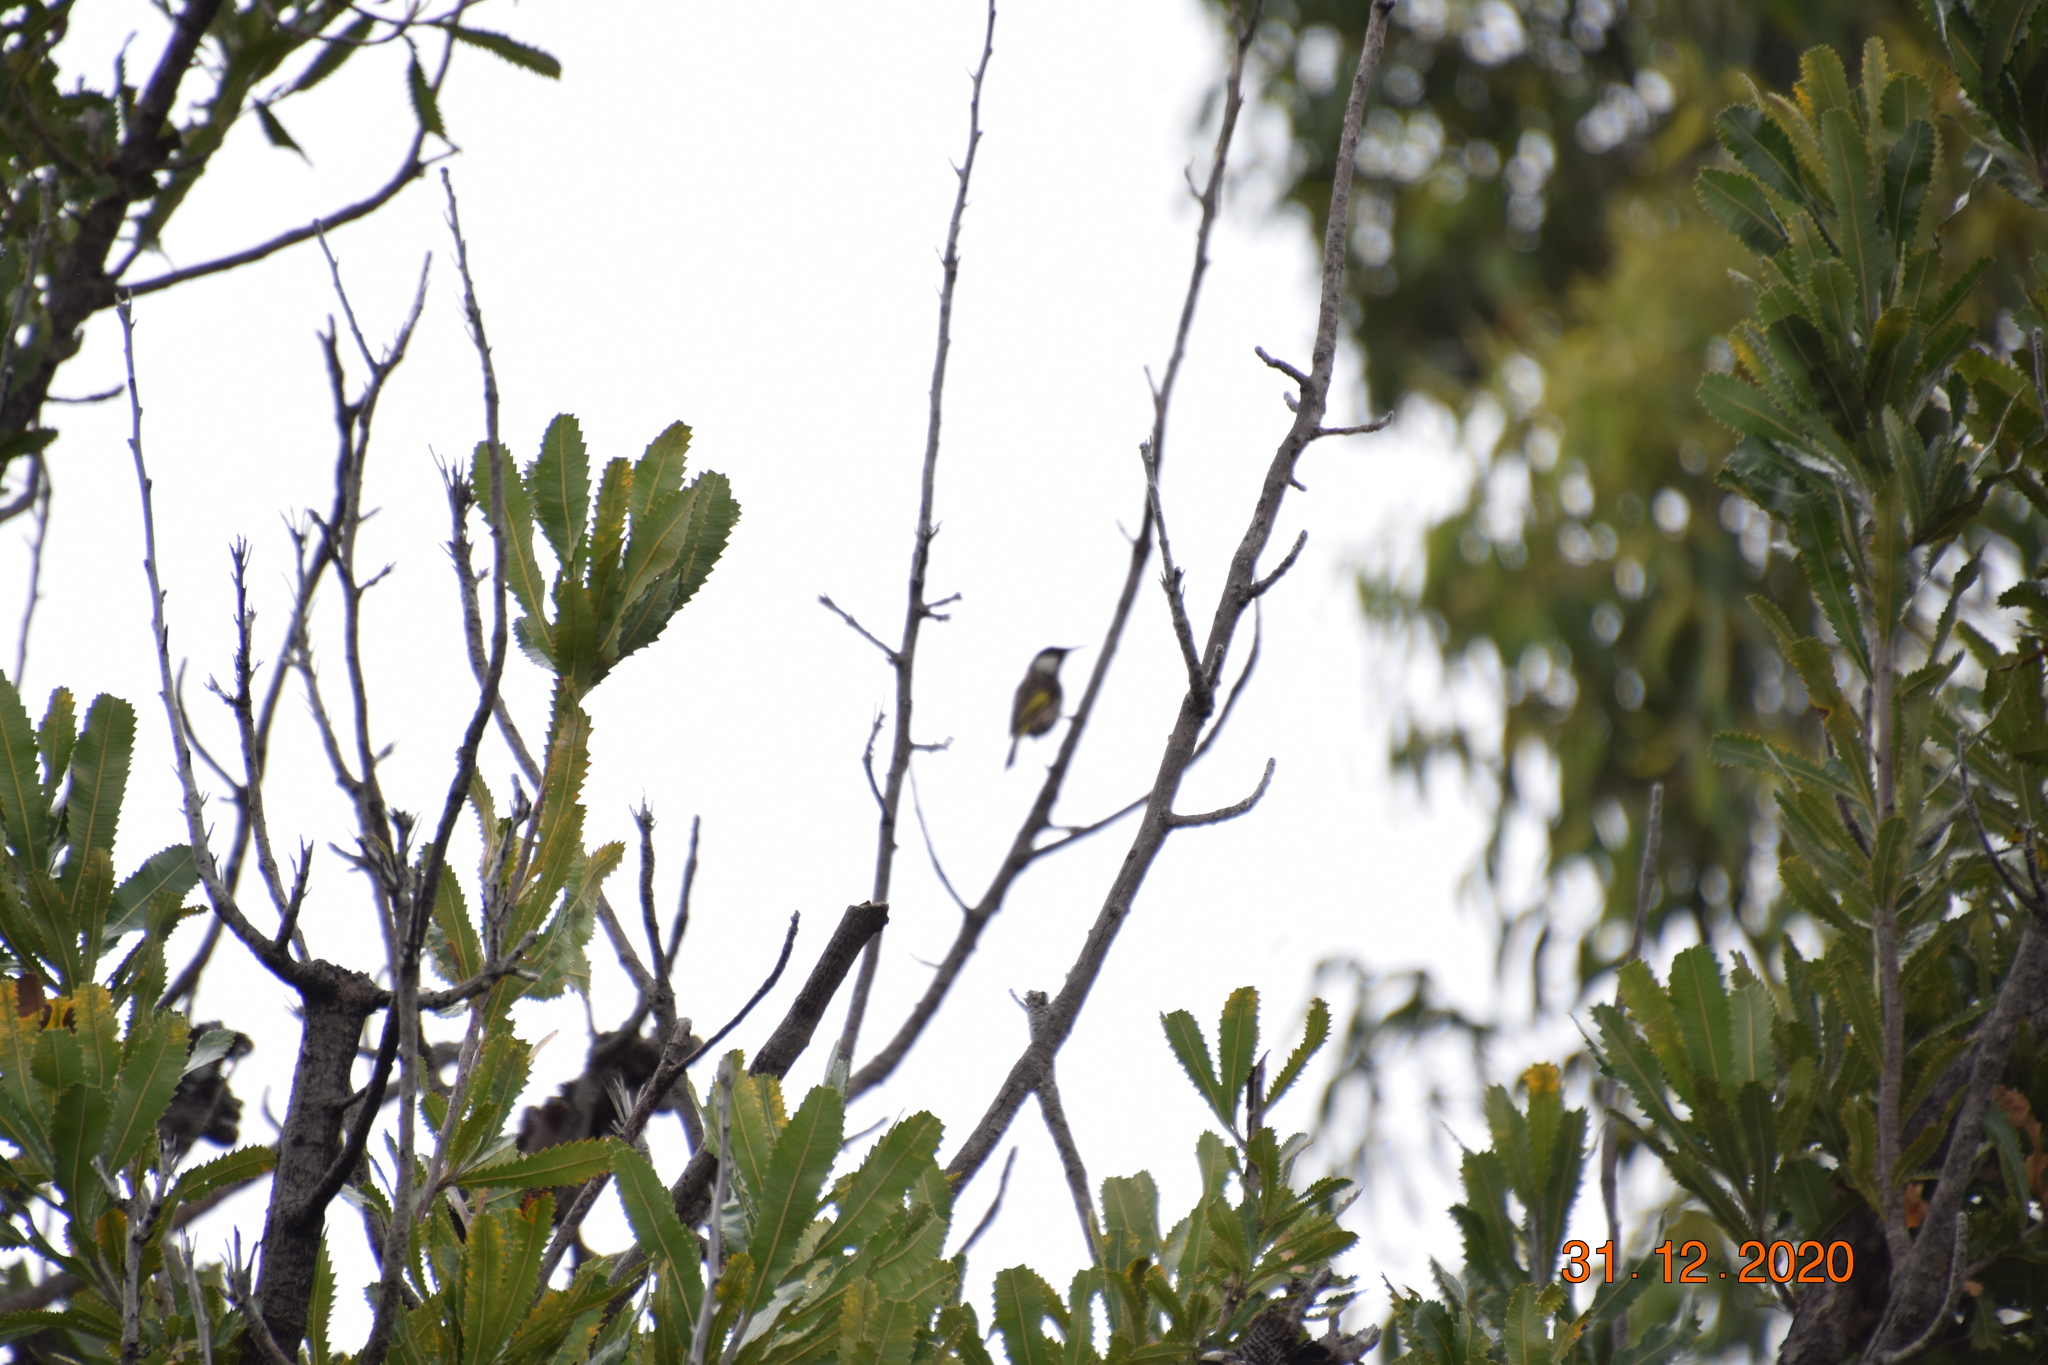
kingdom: Animalia
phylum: Chordata
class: Aves
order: Passeriformes
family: Meliphagidae
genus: Phylidonyris
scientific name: Phylidonyris niger
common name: White-cheeked honeyeater
